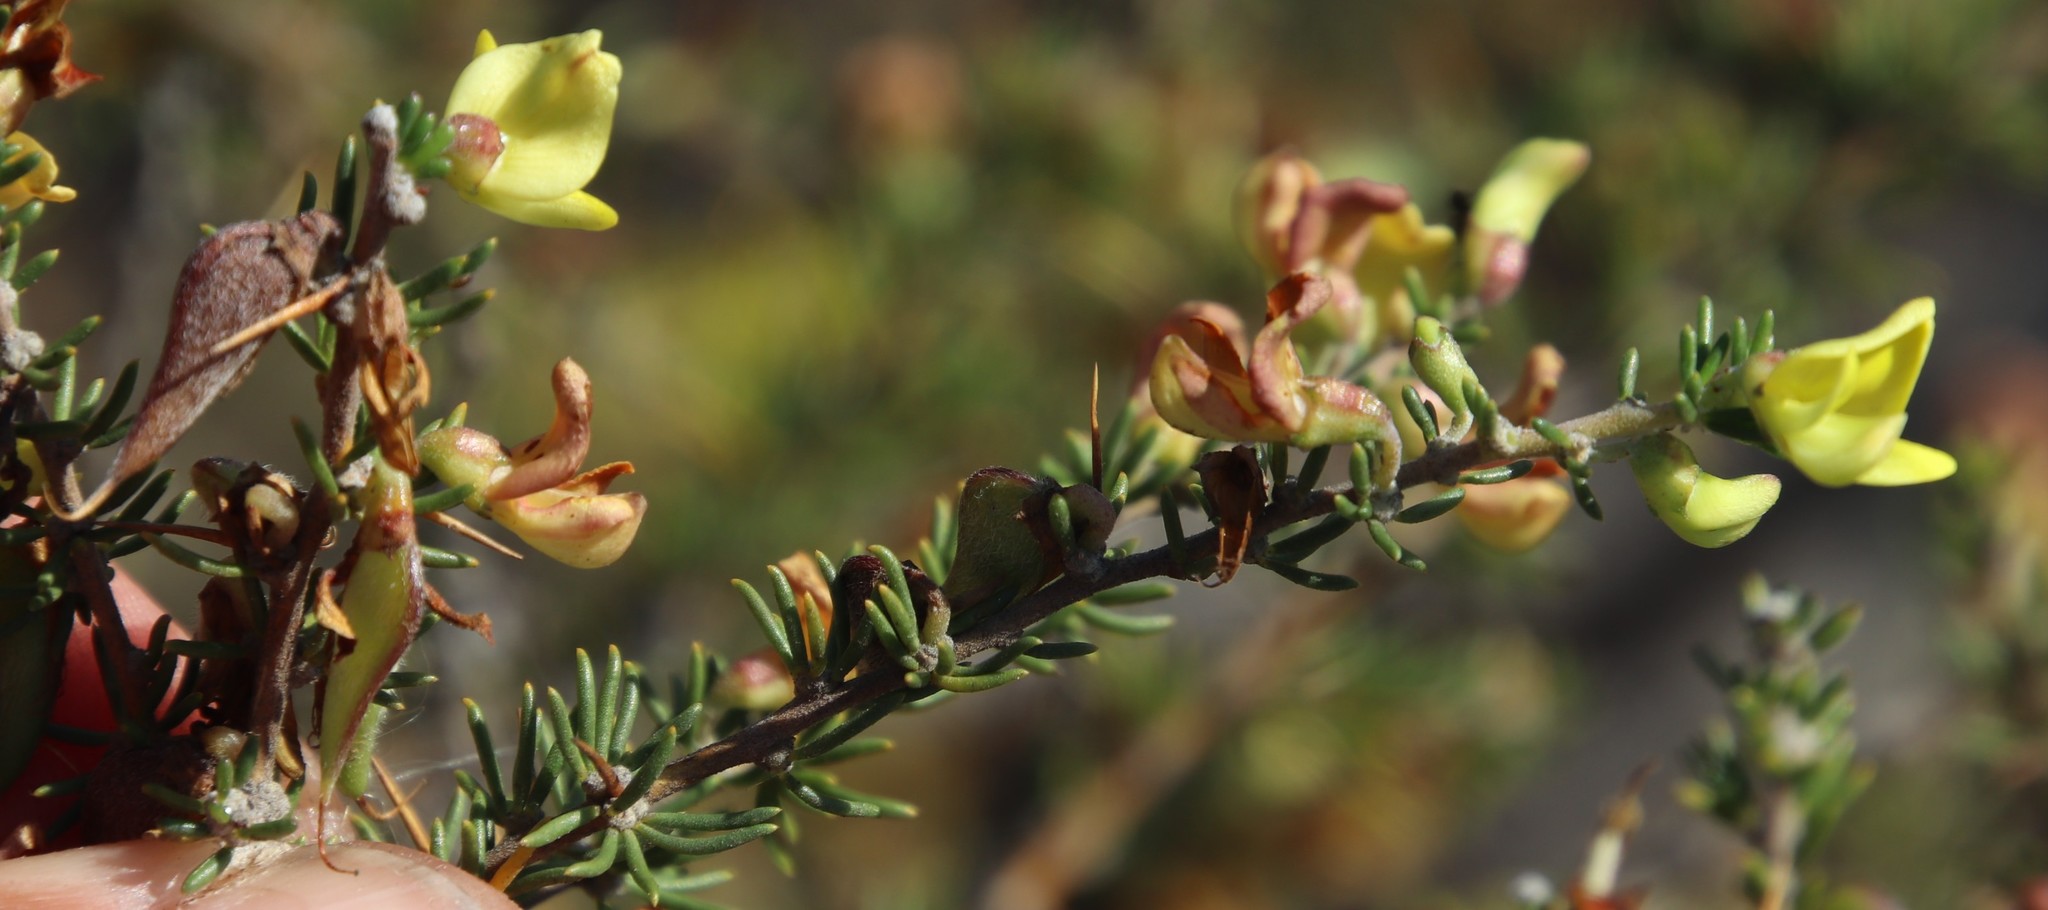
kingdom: Plantae
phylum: Tracheophyta
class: Magnoliopsida
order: Fabales
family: Fabaceae
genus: Aspalathus
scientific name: Aspalathus spinosa
